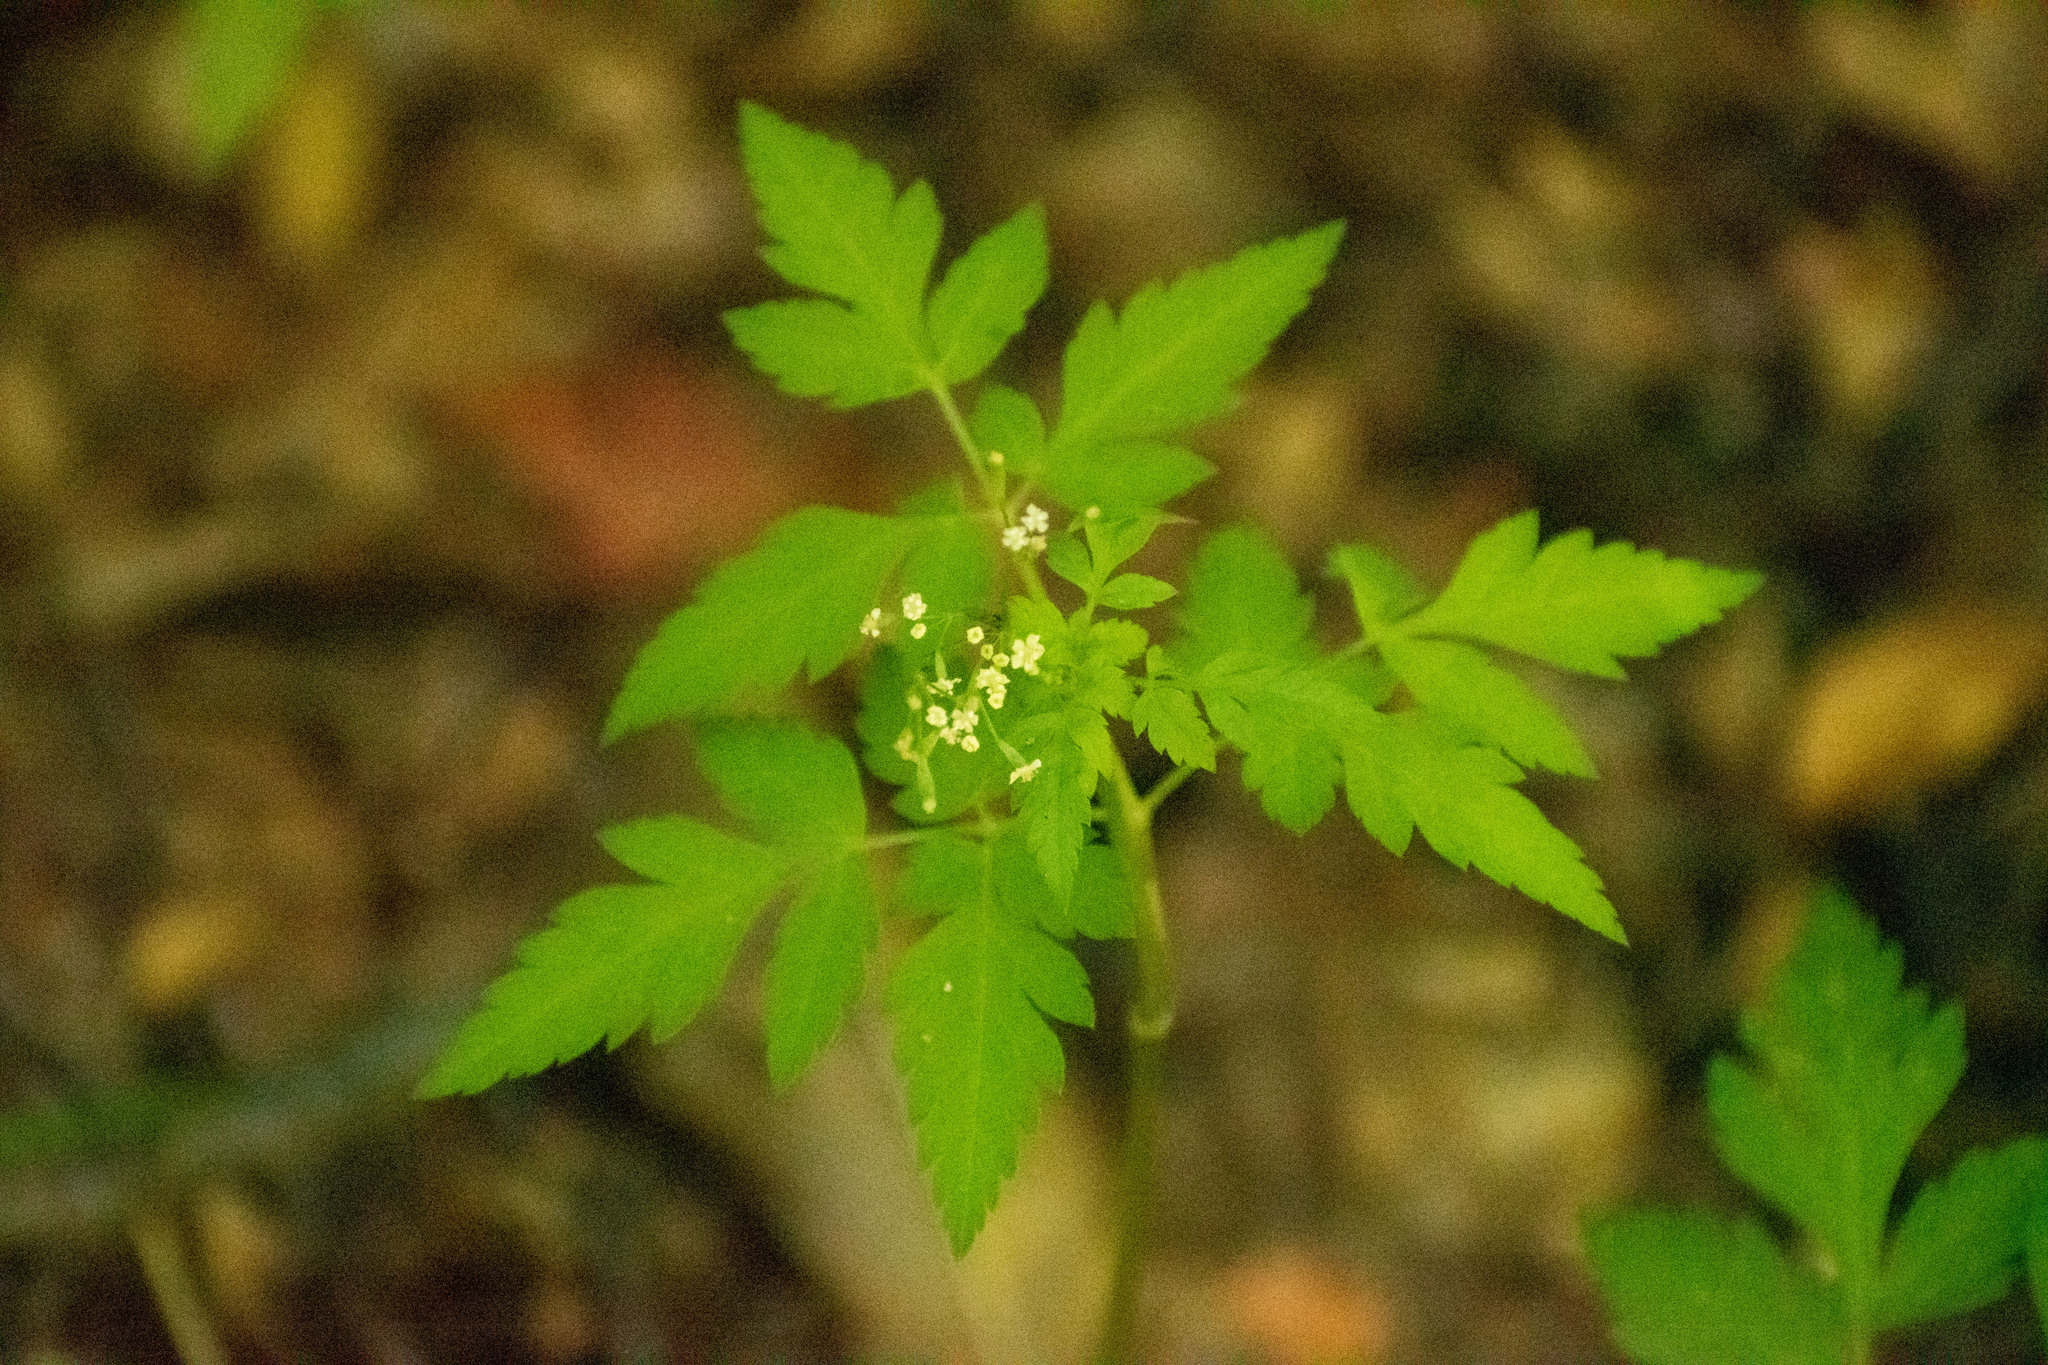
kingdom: Plantae
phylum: Tracheophyta
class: Magnoliopsida
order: Apiales
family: Apiaceae
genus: Osmorhiza
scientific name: Osmorhiza berteroi
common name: Mountain sweet cicely
